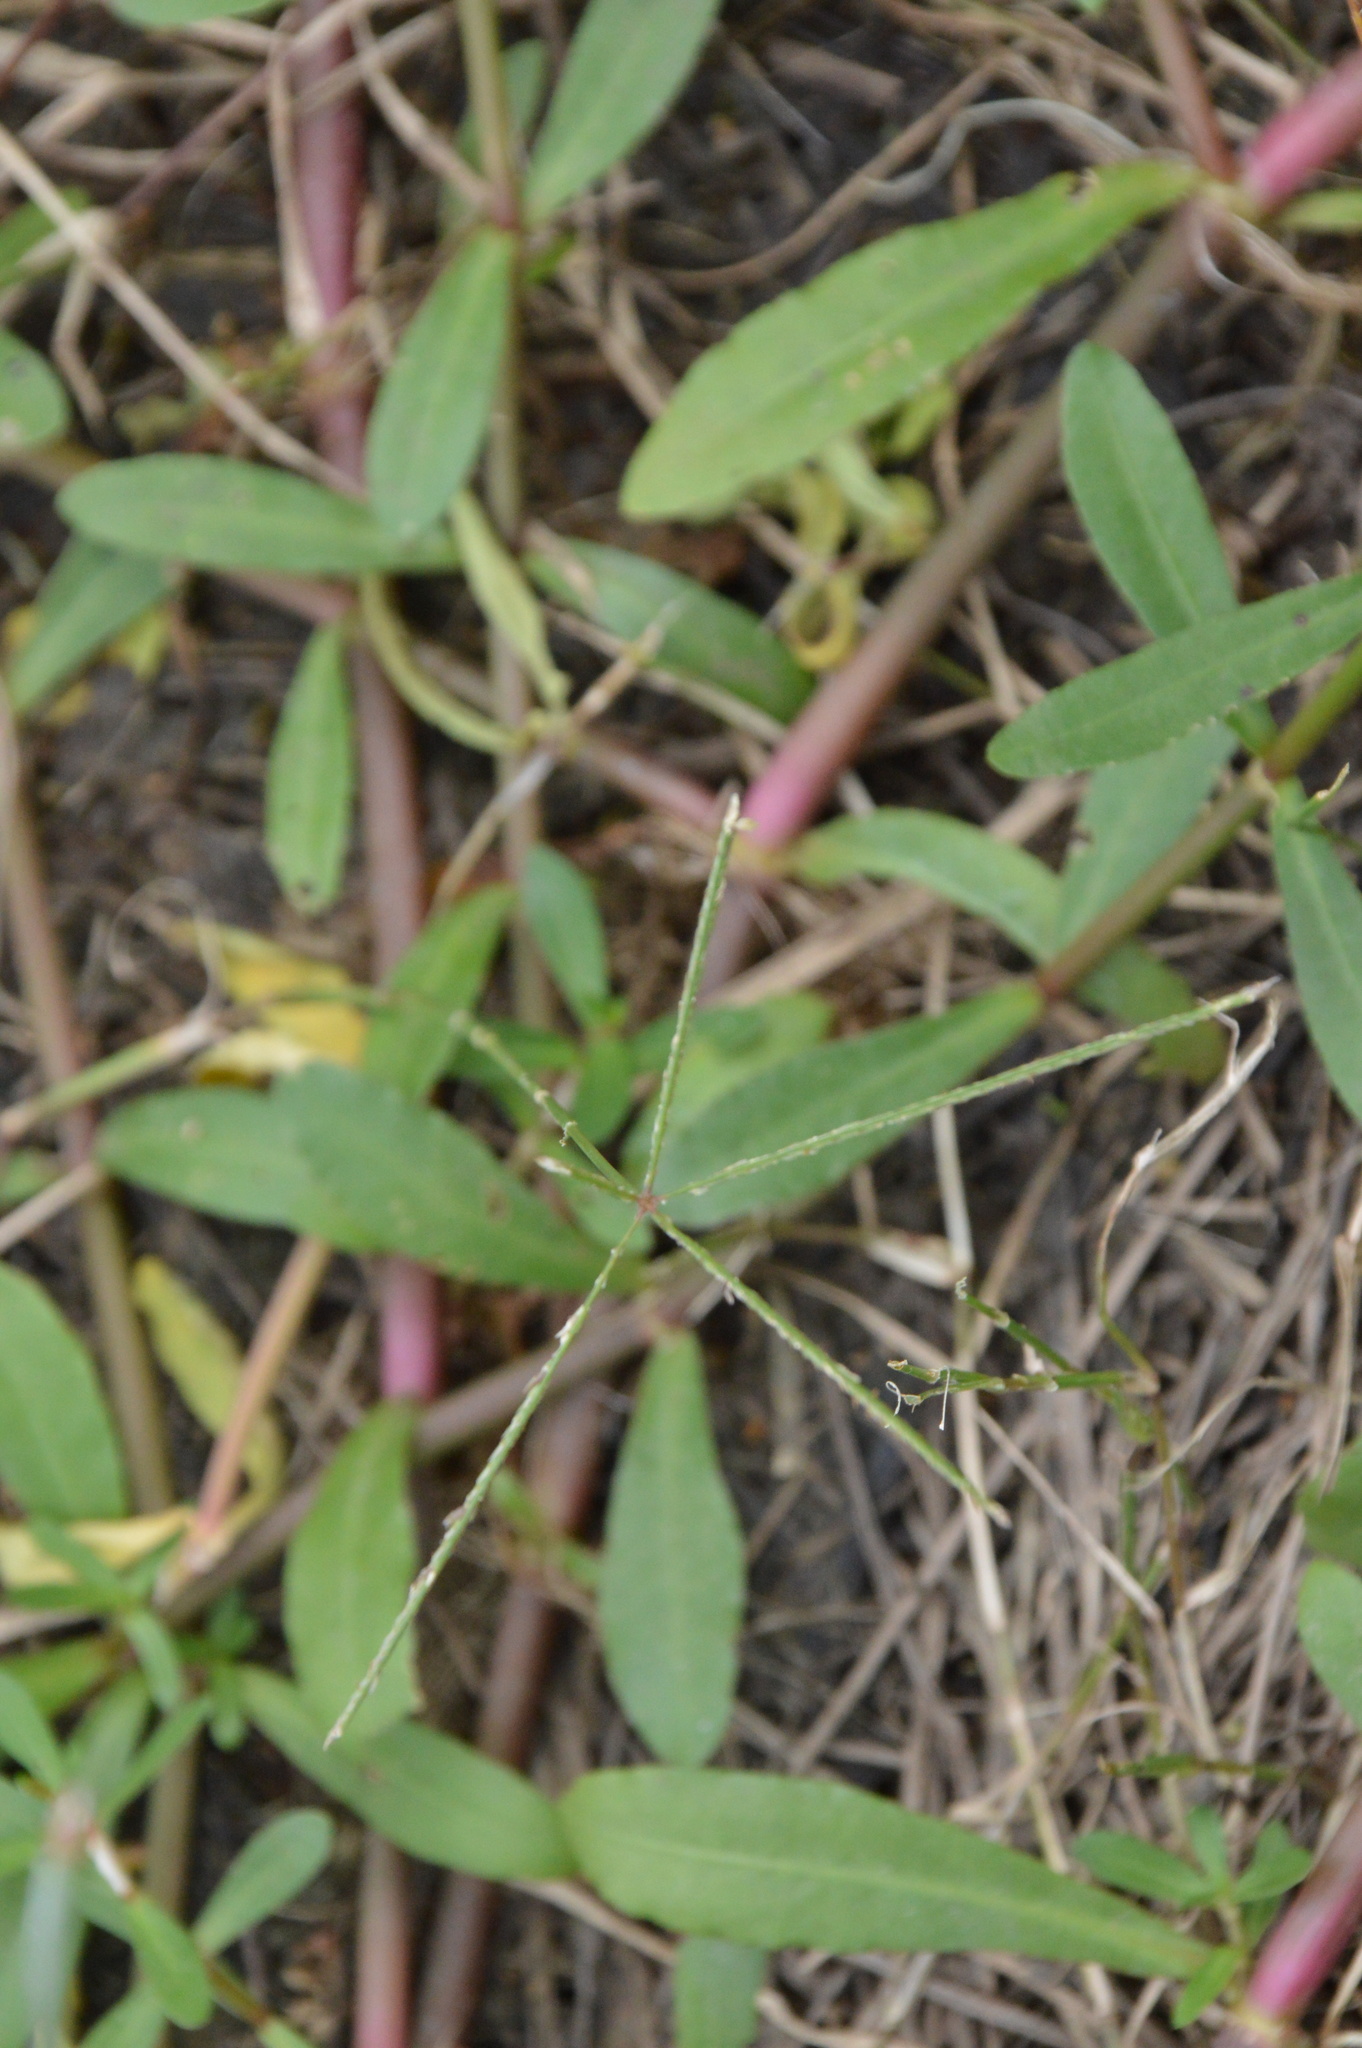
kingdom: Plantae
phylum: Tracheophyta
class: Liliopsida
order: Poales
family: Poaceae
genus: Cynodon
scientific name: Cynodon dactylon
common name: Bermuda grass
